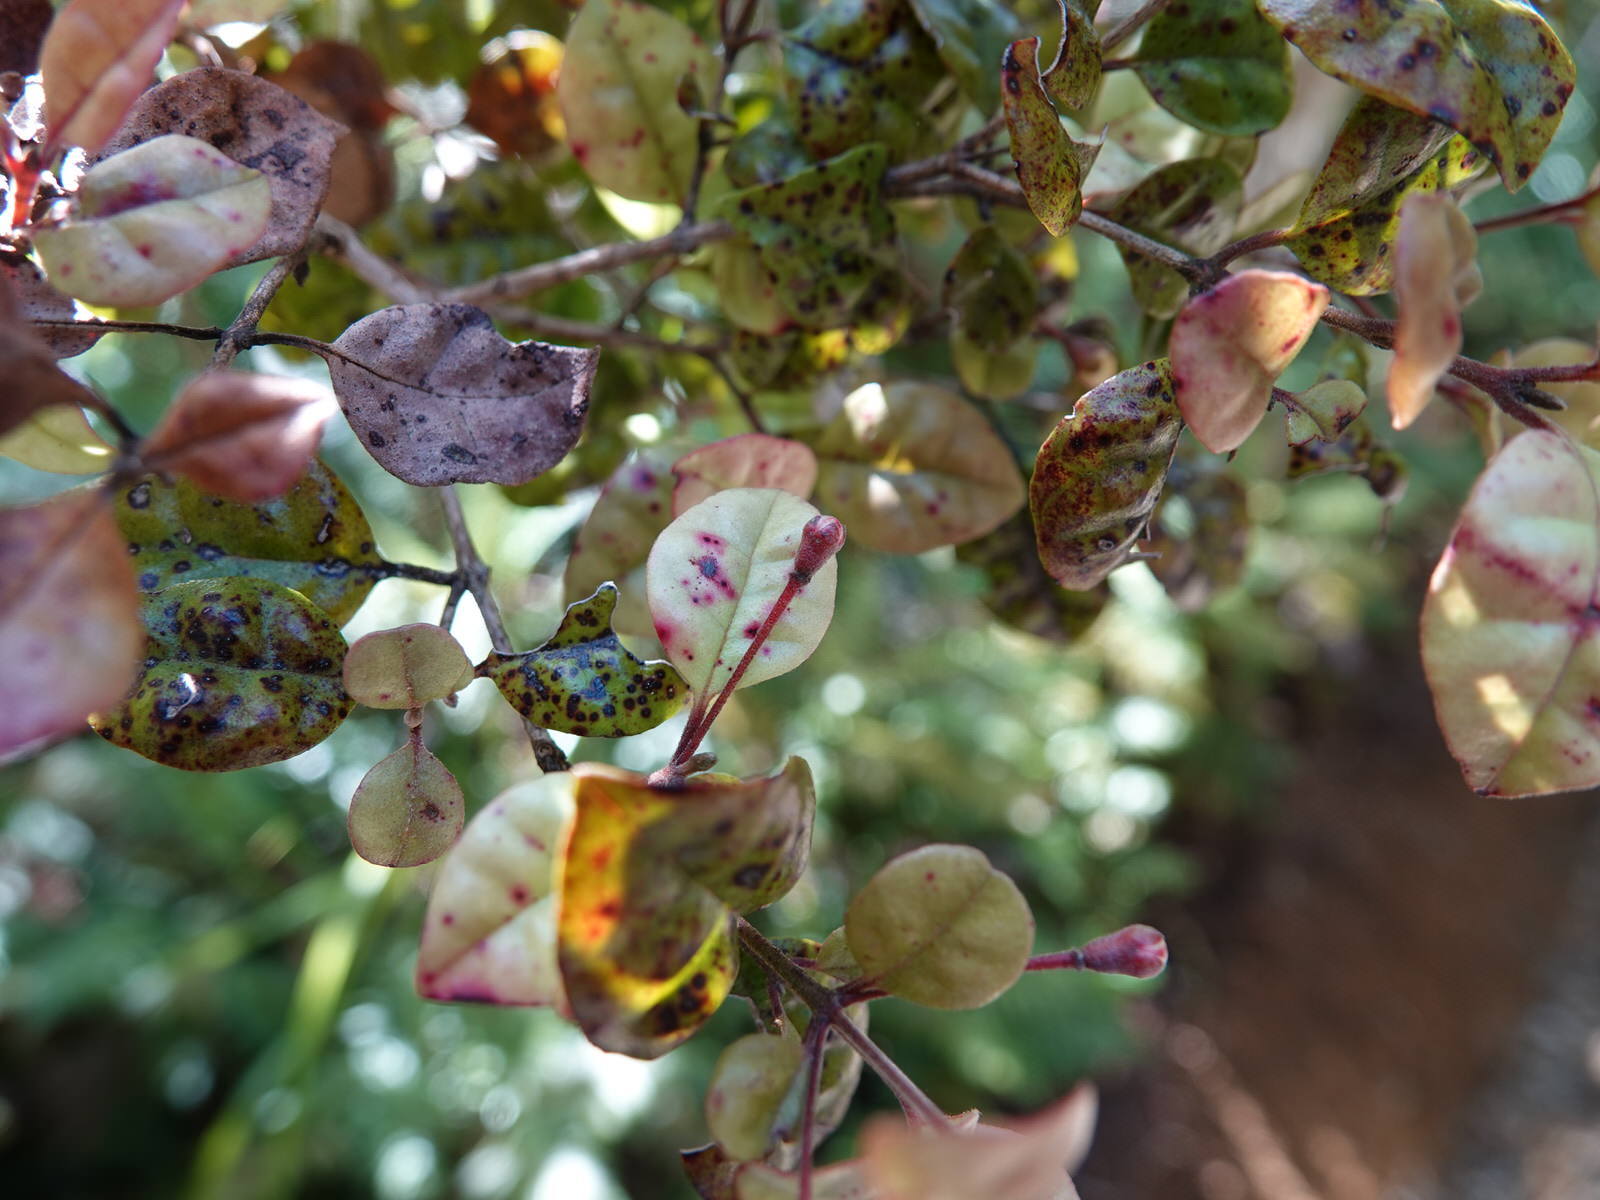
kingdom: Plantae
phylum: Tracheophyta
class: Magnoliopsida
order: Myrtales
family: Myrtaceae
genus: Lophomyrtus
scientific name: Lophomyrtus bullata
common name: Rama rama
